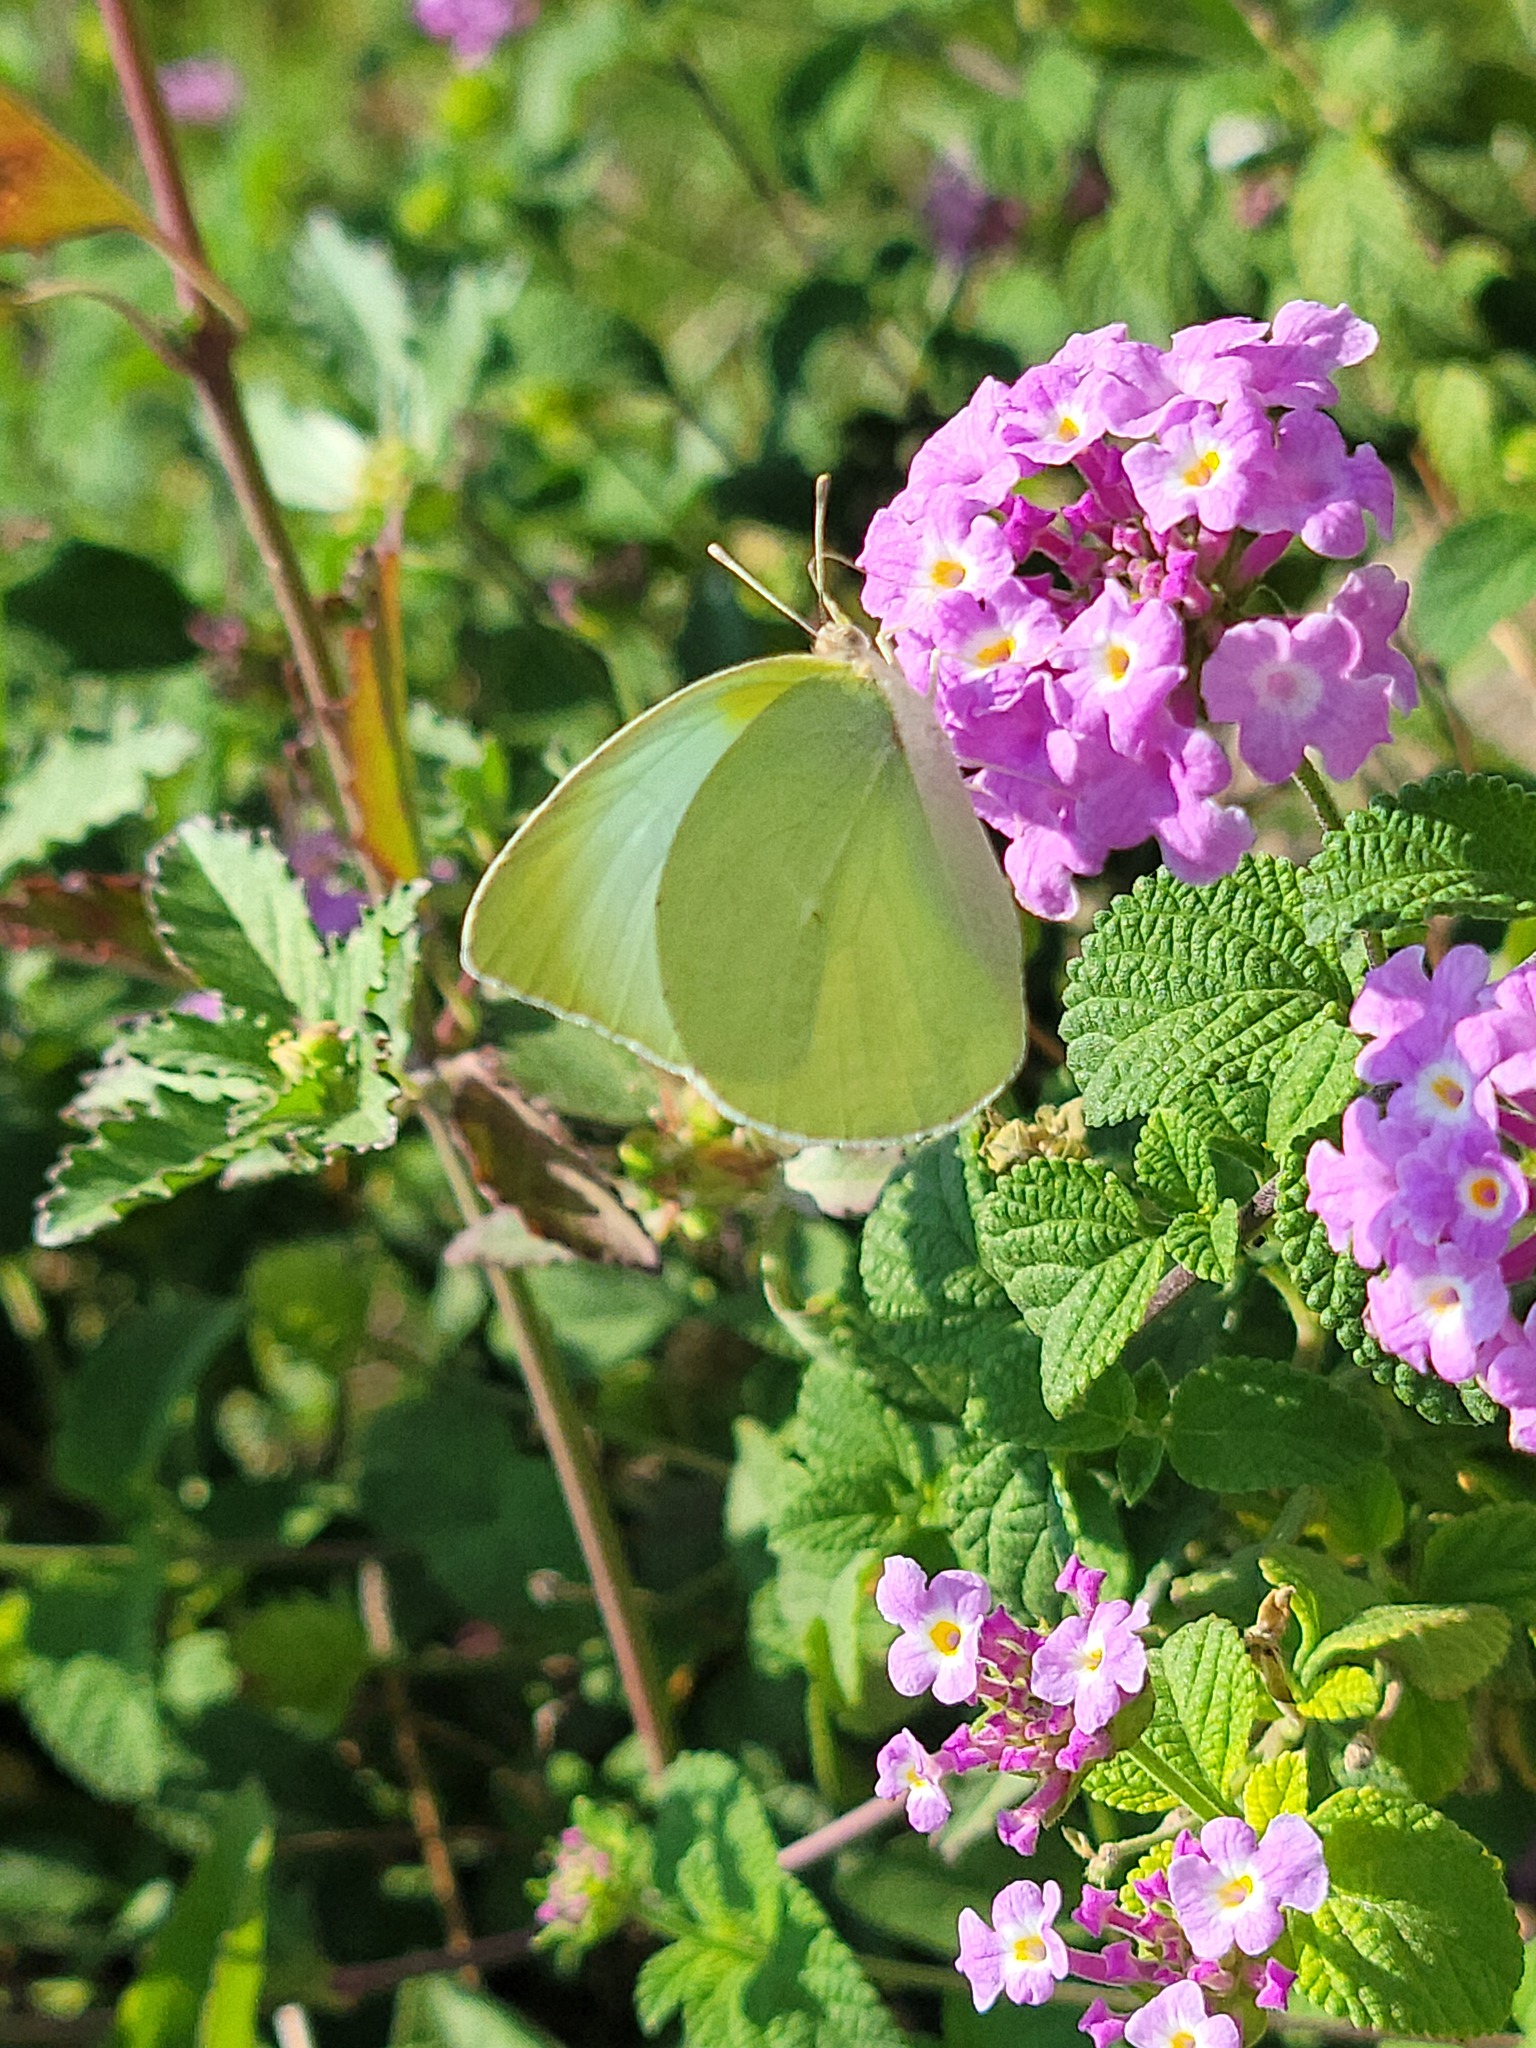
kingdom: Animalia
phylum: Arthropoda
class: Insecta
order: Lepidoptera
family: Pieridae
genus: Kricogonia
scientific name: Kricogonia lyside
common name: Guayacan sulphur,
